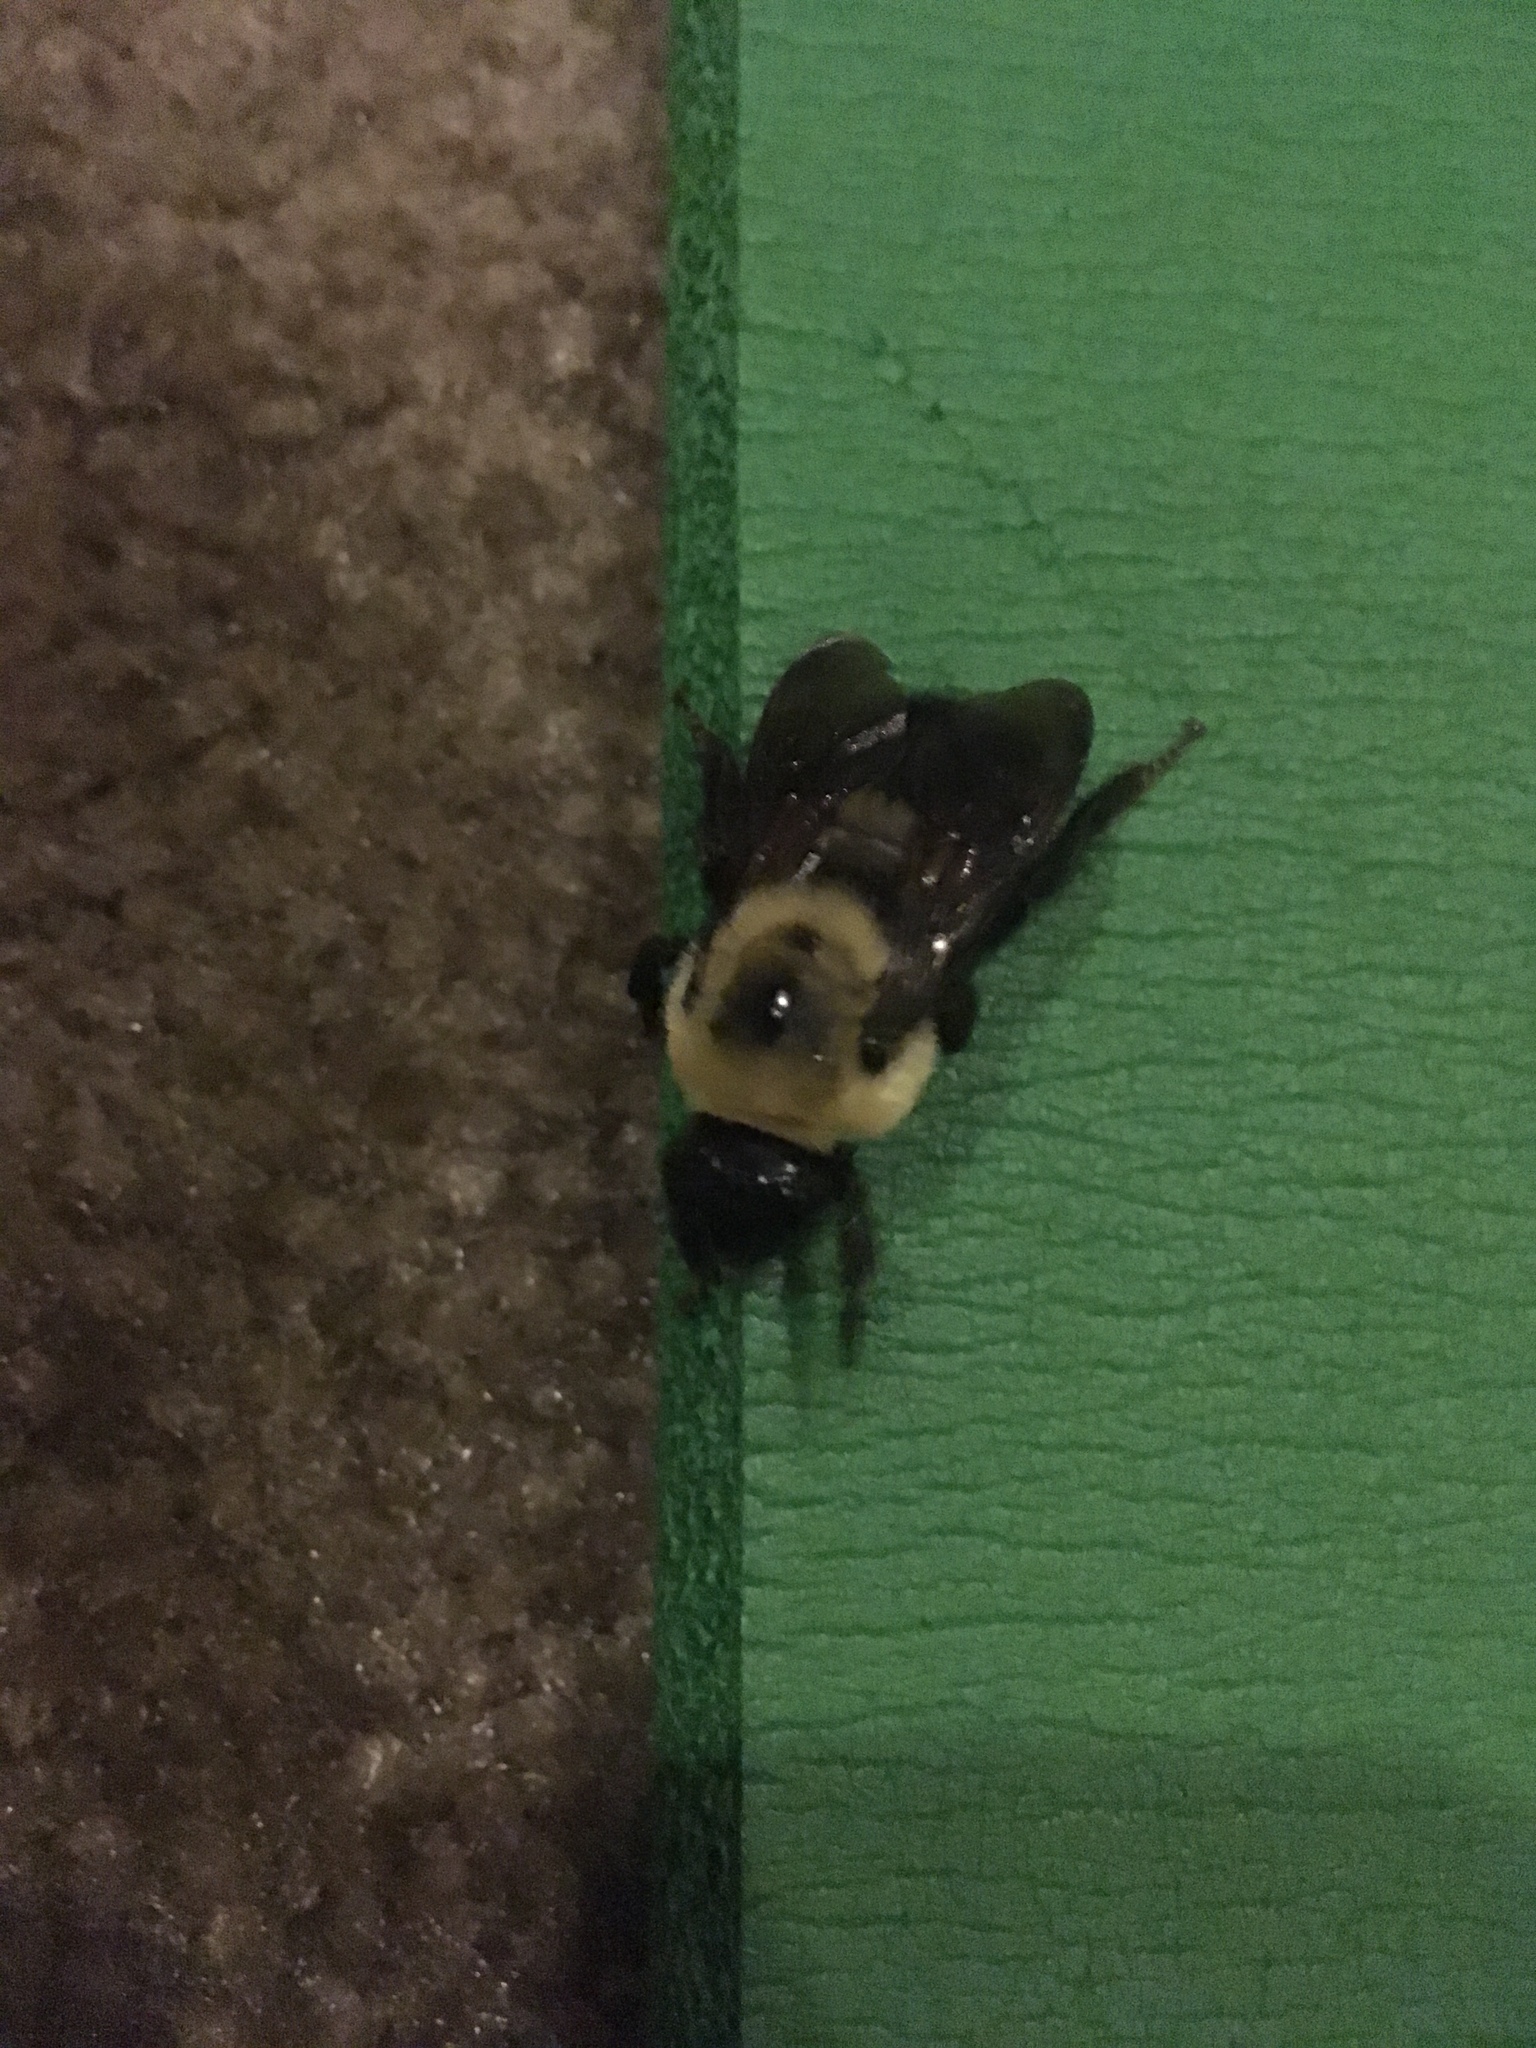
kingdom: Animalia
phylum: Arthropoda
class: Insecta
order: Hymenoptera
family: Apidae
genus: Bombus
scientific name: Bombus griseocollis
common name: Brown-belted bumble bee
